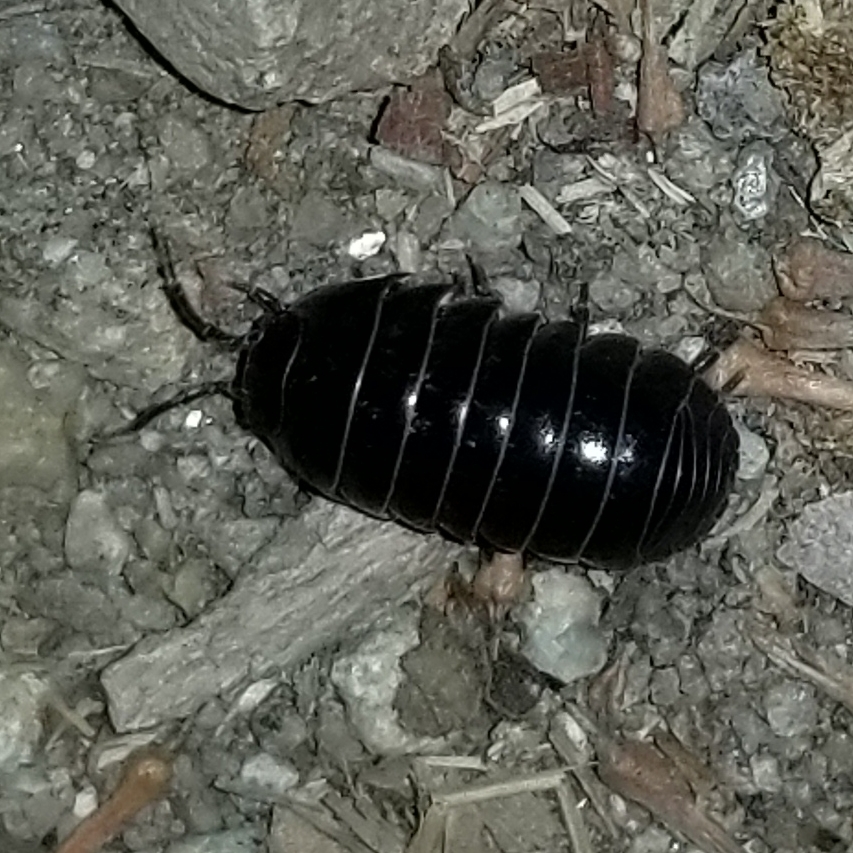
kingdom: Animalia
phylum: Arthropoda
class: Malacostraca
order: Isopoda
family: Armadillidiidae
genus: Armadillidium
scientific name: Armadillidium vulgare
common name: Common pill woodlouse
